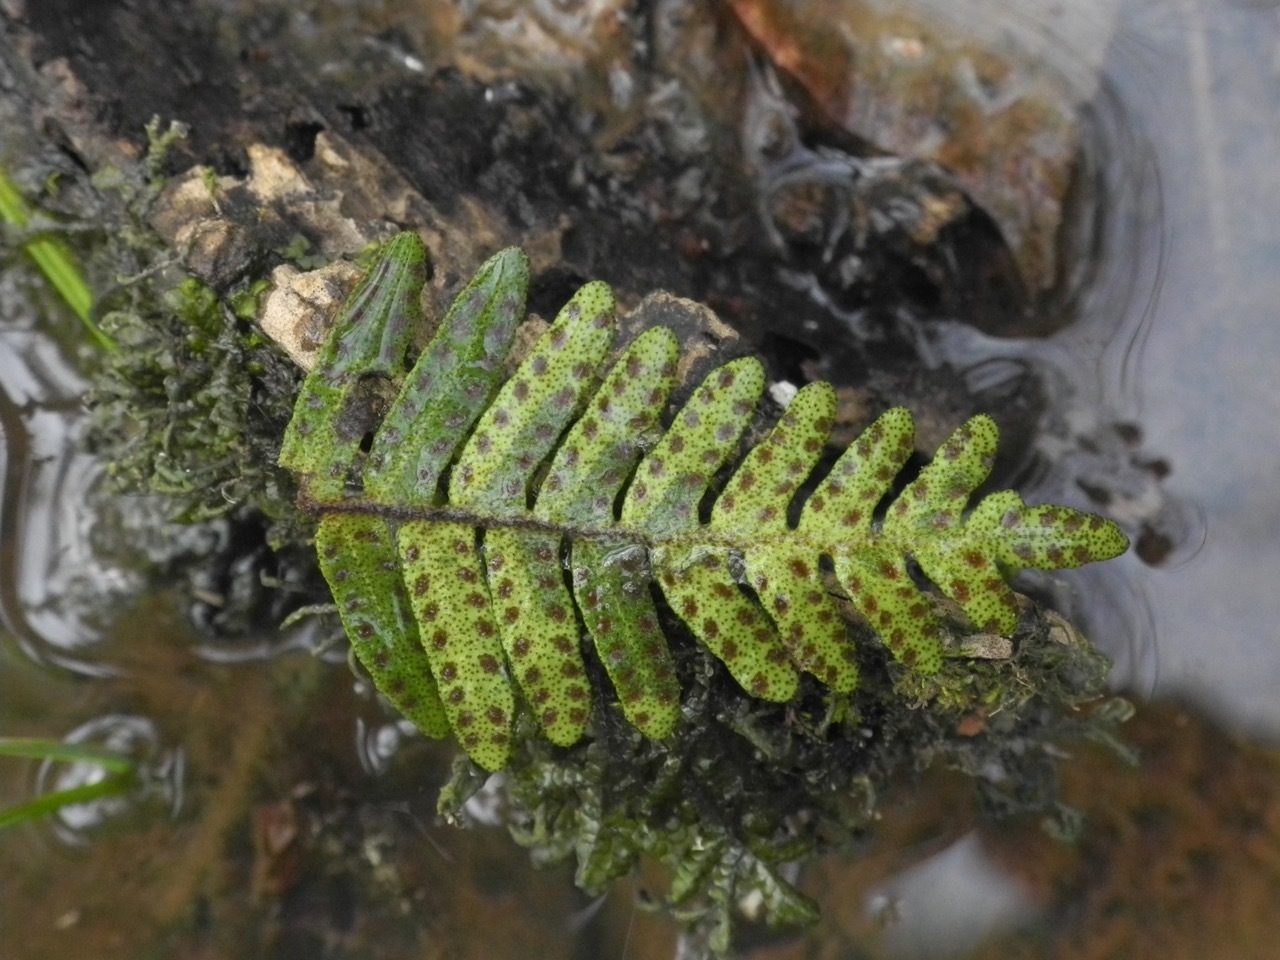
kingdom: Plantae
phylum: Tracheophyta
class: Polypodiopsida
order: Polypodiales
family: Polypodiaceae
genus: Pleopeltis
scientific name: Pleopeltis michauxiana
